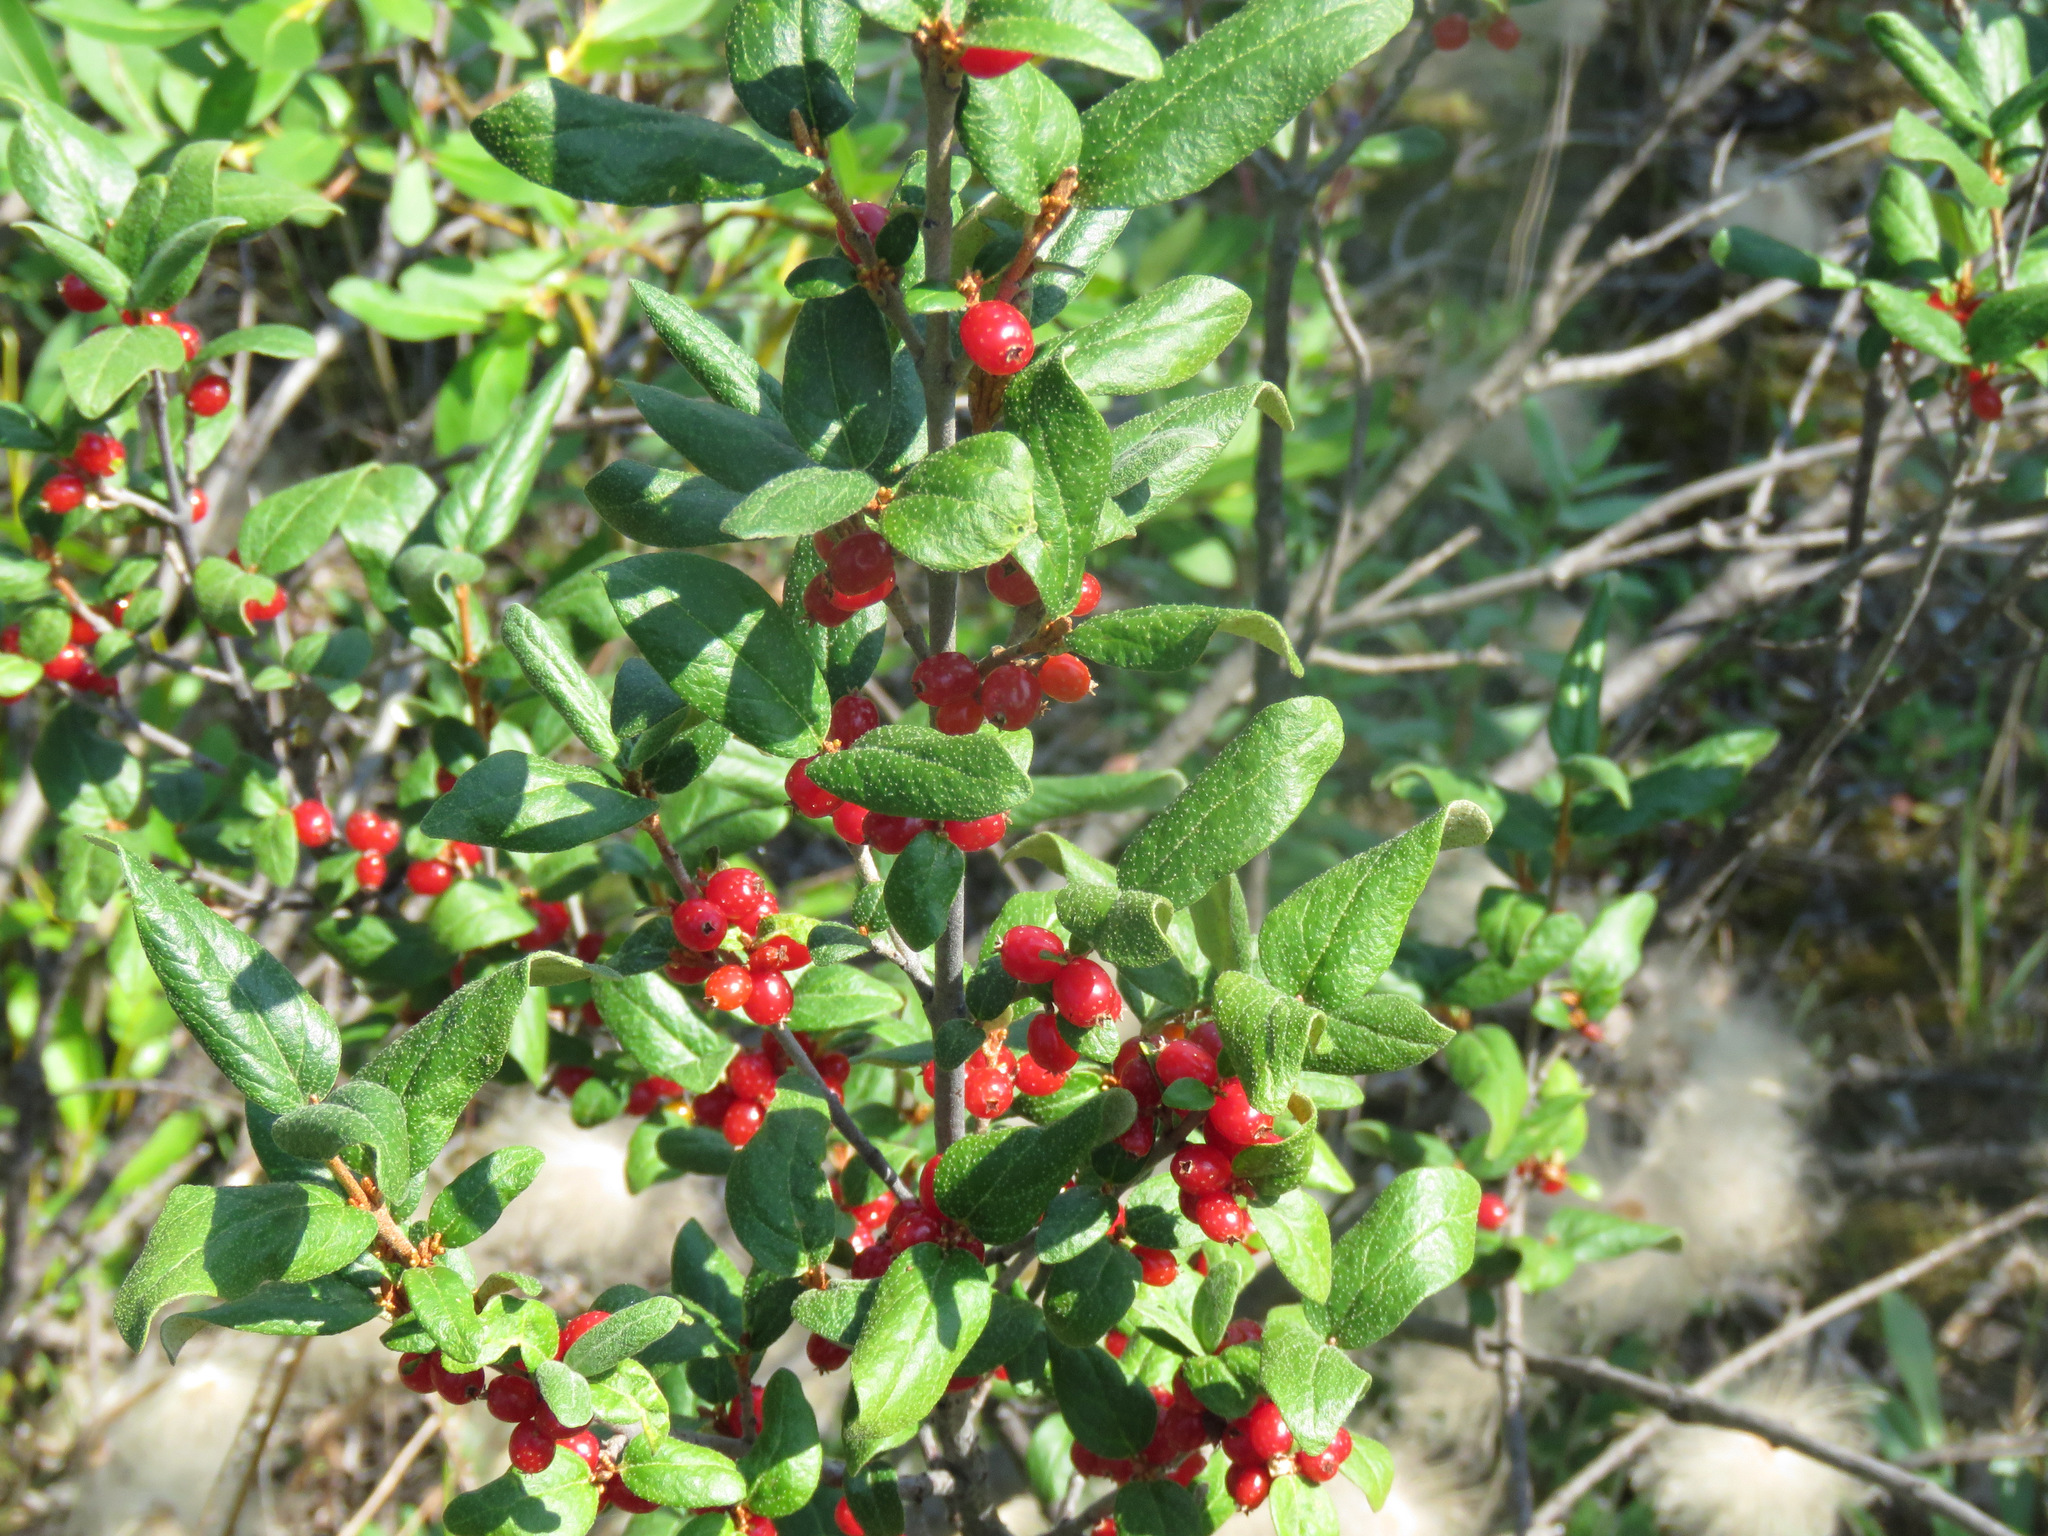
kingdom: Plantae
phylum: Tracheophyta
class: Magnoliopsida
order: Rosales
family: Elaeagnaceae
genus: Shepherdia
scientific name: Shepherdia canadensis
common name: Soapberry
